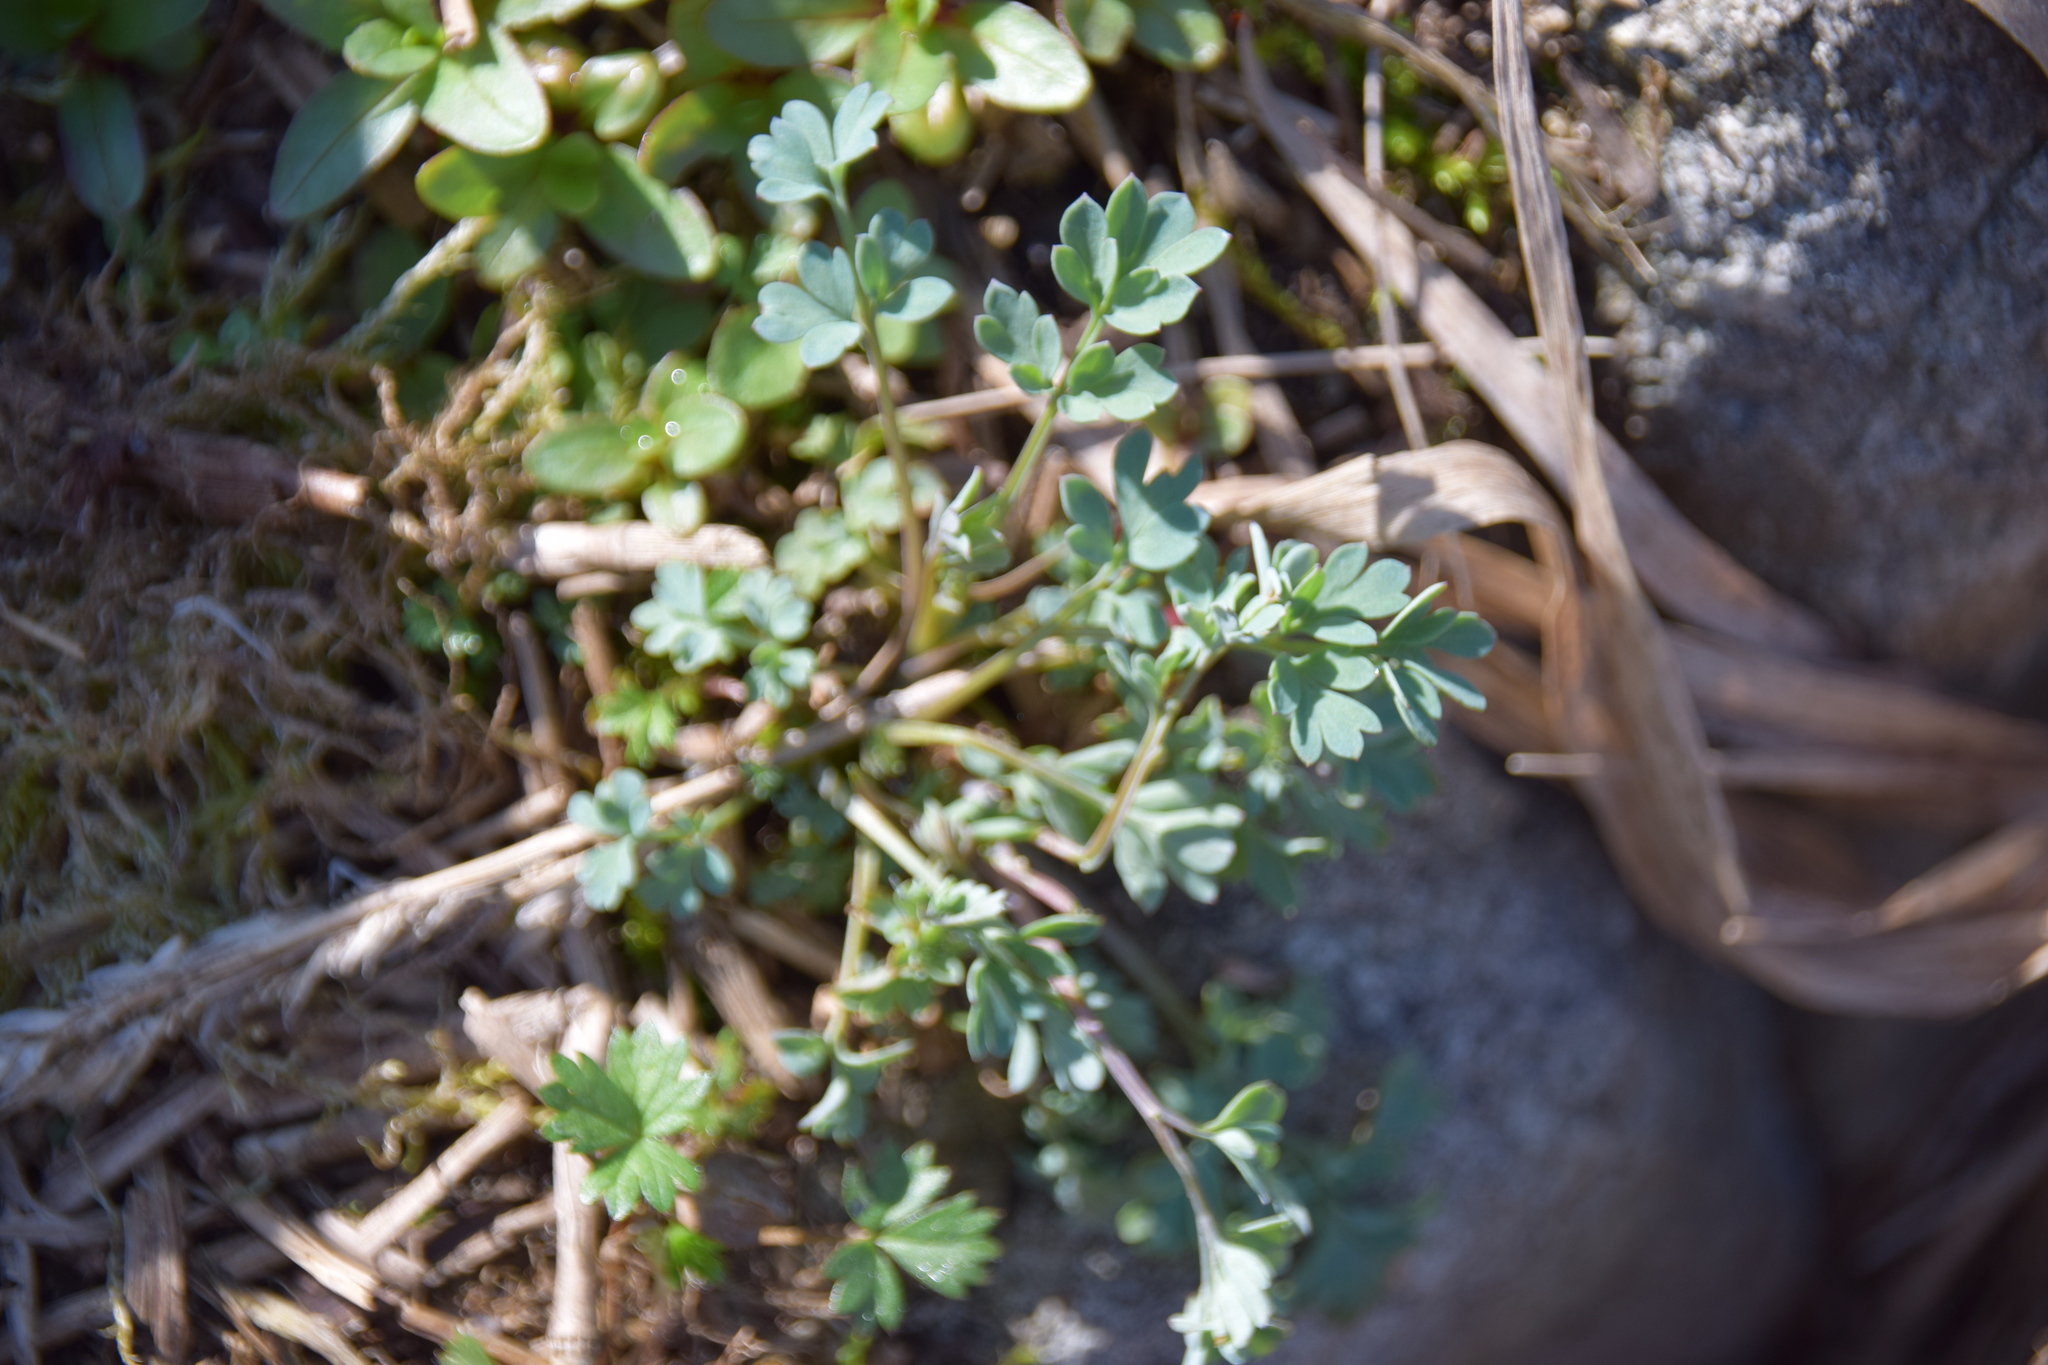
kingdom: Plantae
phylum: Tracheophyta
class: Magnoliopsida
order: Ranunculales
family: Papaveraceae
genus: Capnoides
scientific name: Capnoides sempervirens
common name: Rock harlequin
